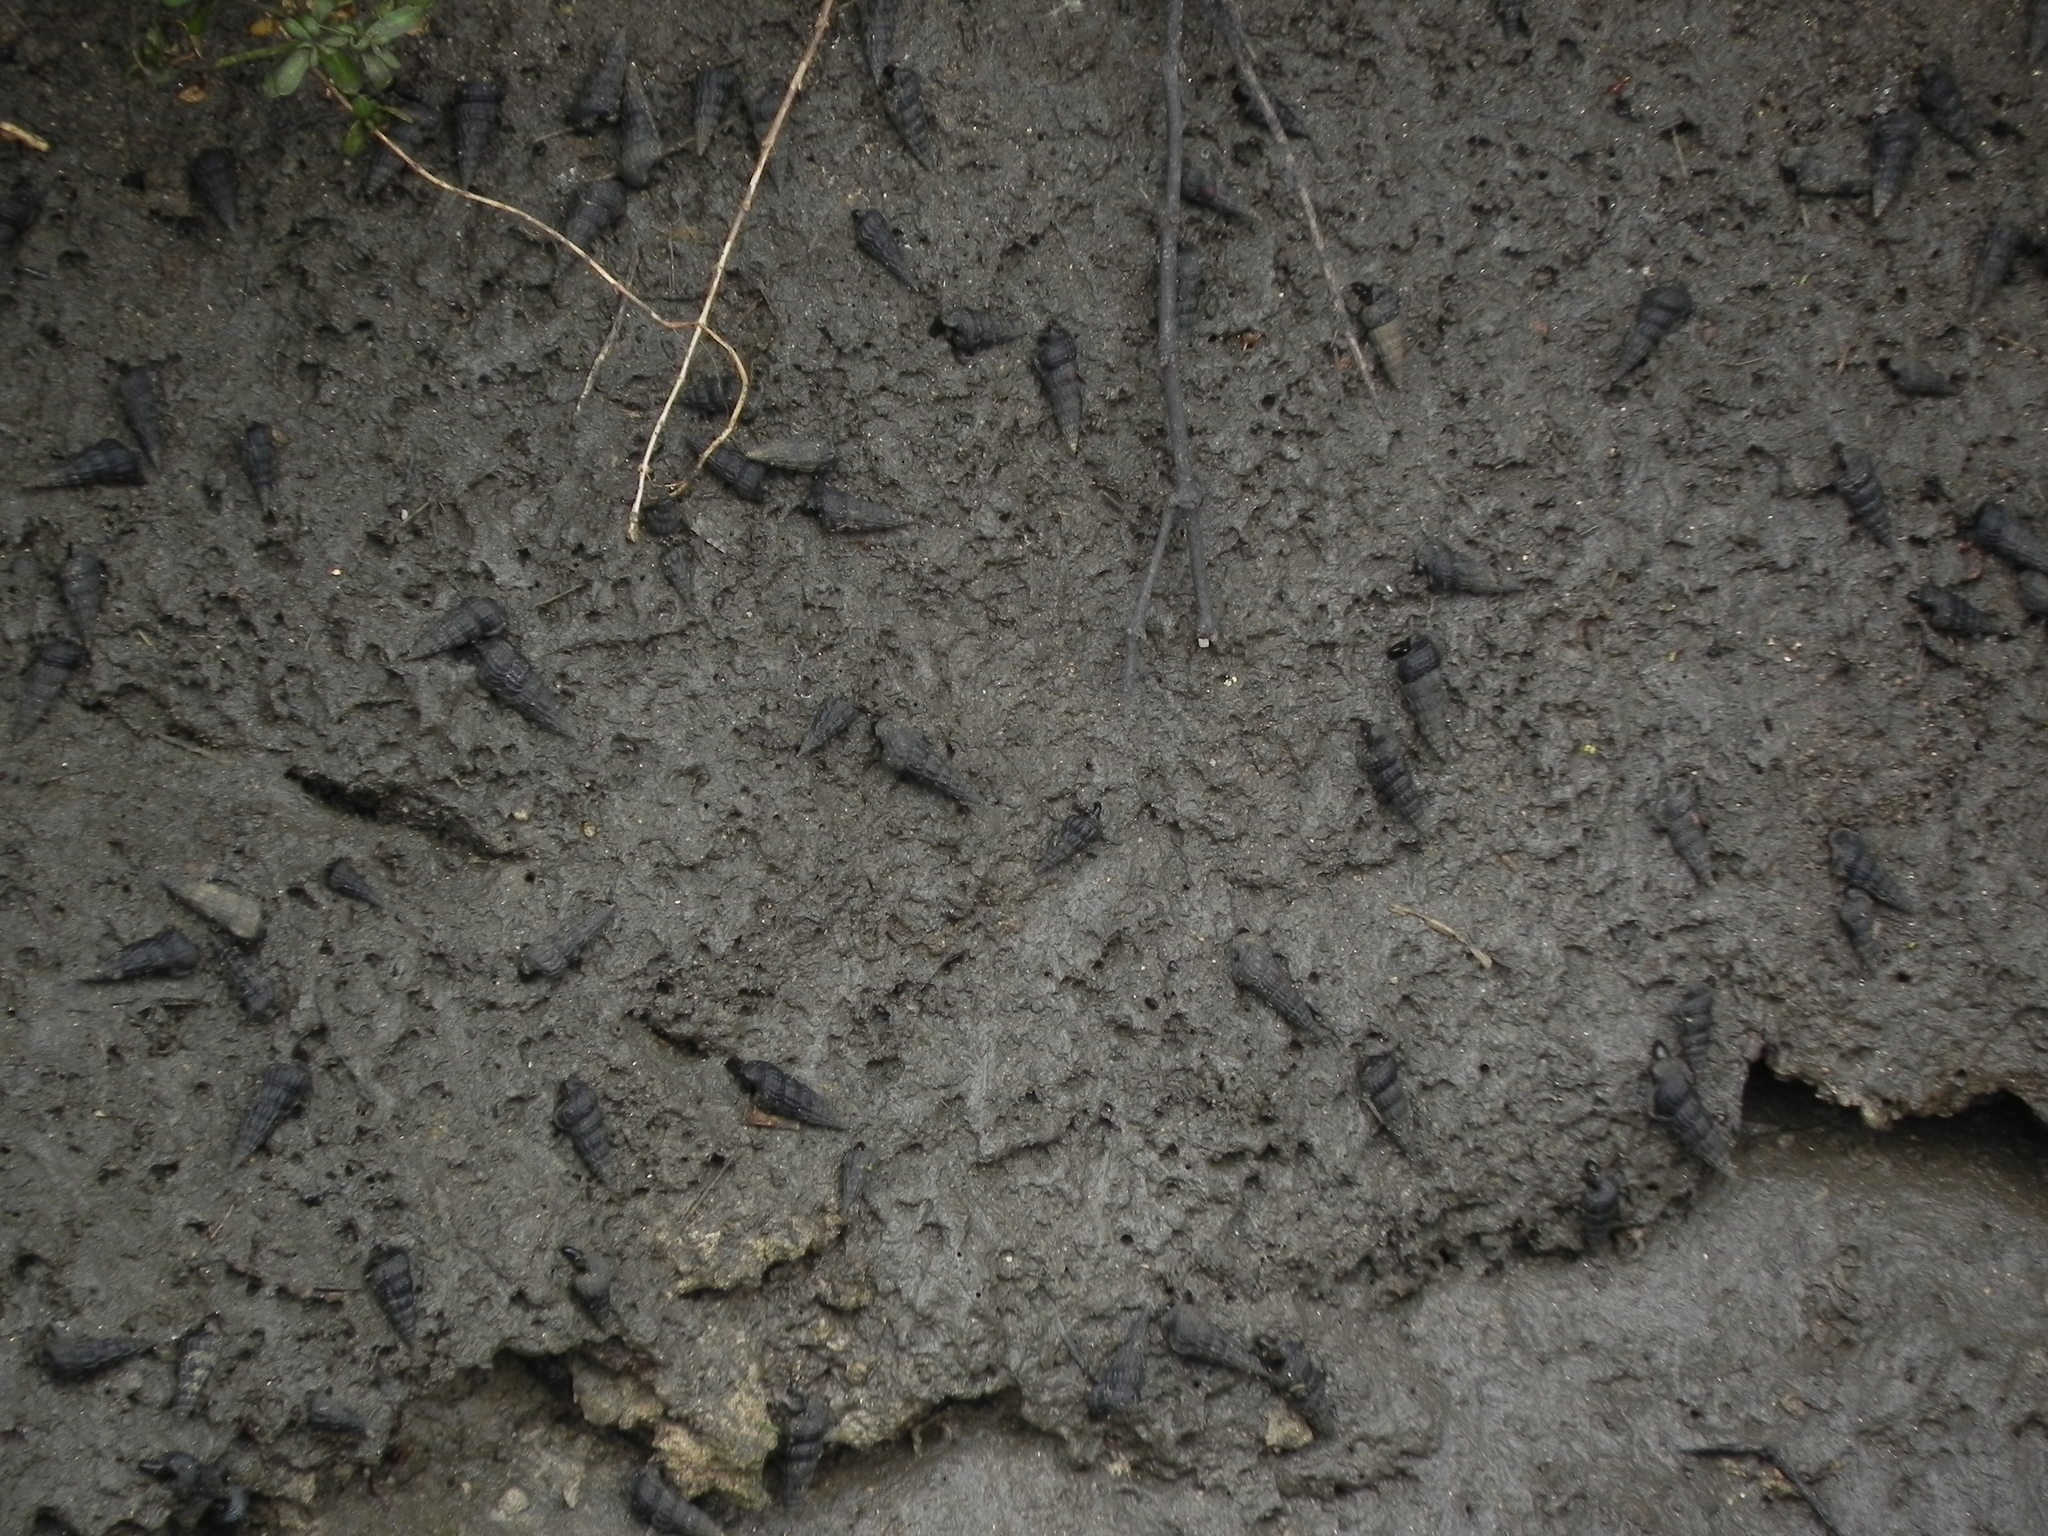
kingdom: Animalia
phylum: Mollusca
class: Gastropoda
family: Potamididae
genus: Cerithideopsis
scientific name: Cerithideopsis californica
